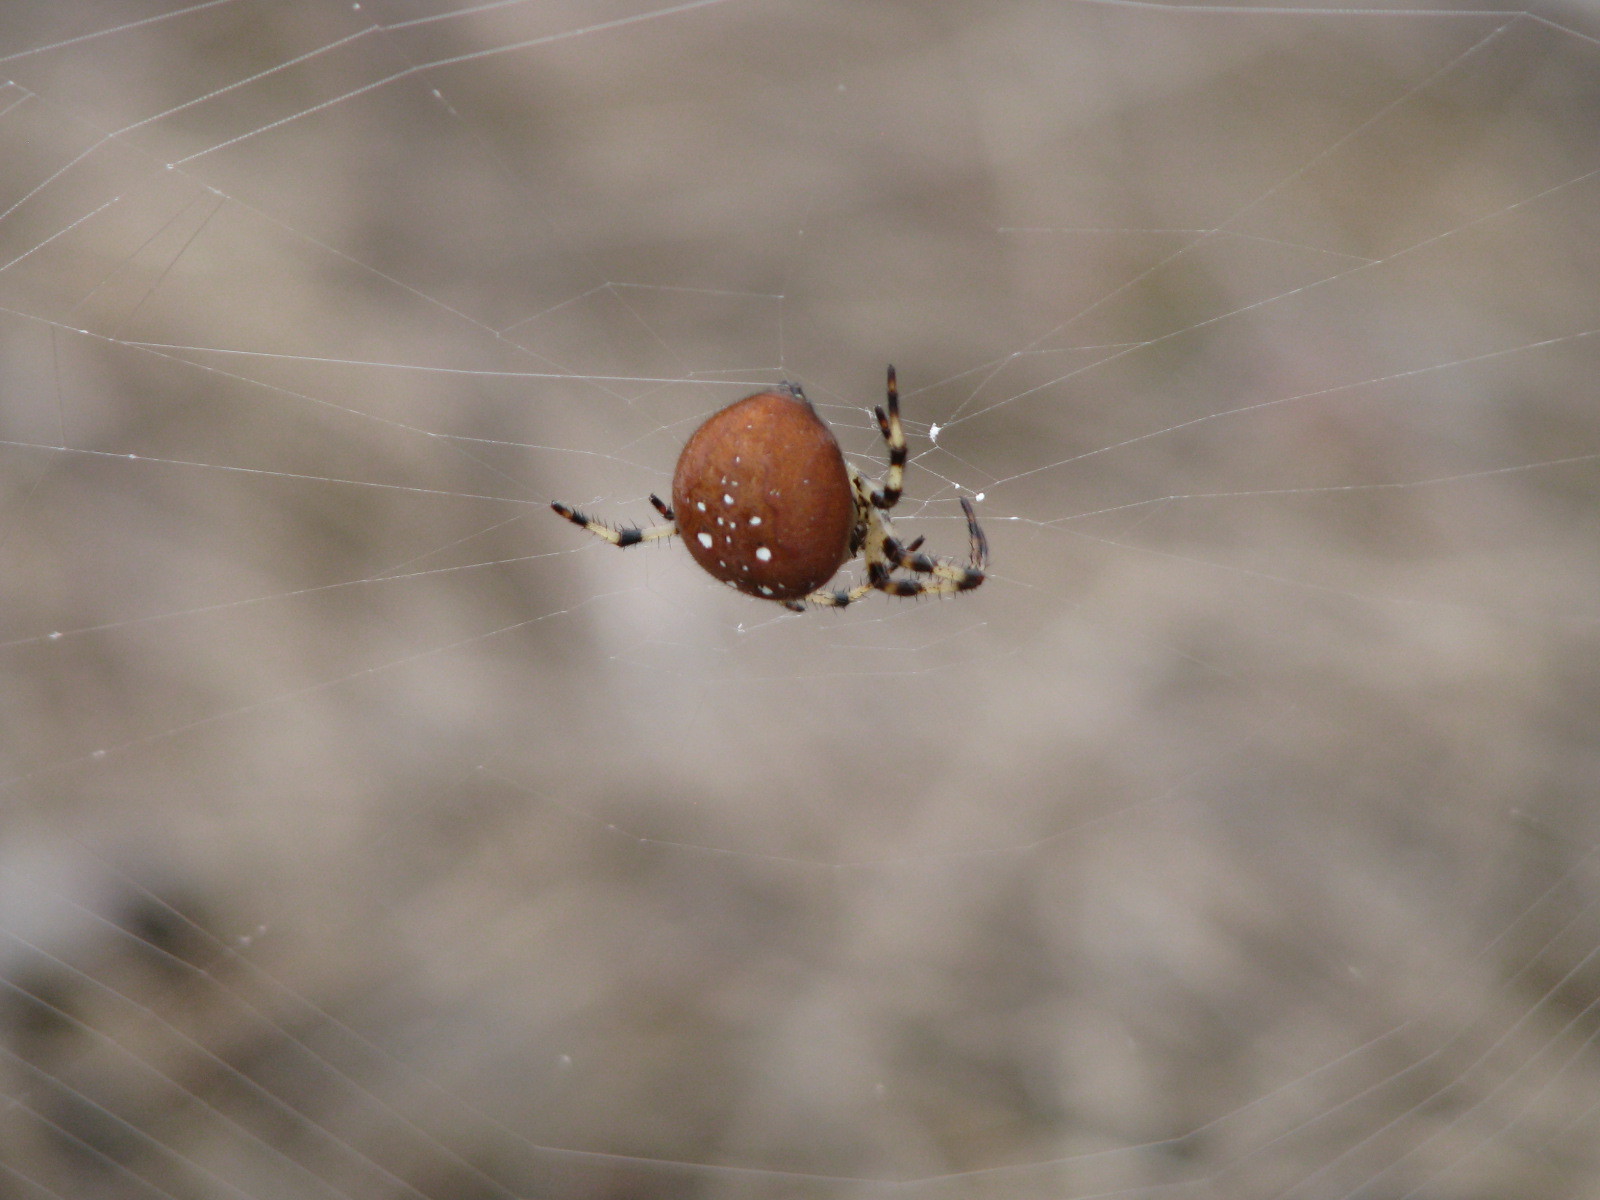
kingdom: Animalia
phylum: Arthropoda
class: Arachnida
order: Araneae
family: Araneidae
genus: Araneus
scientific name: Araneus trifolium
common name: Shamrock orbweaver
